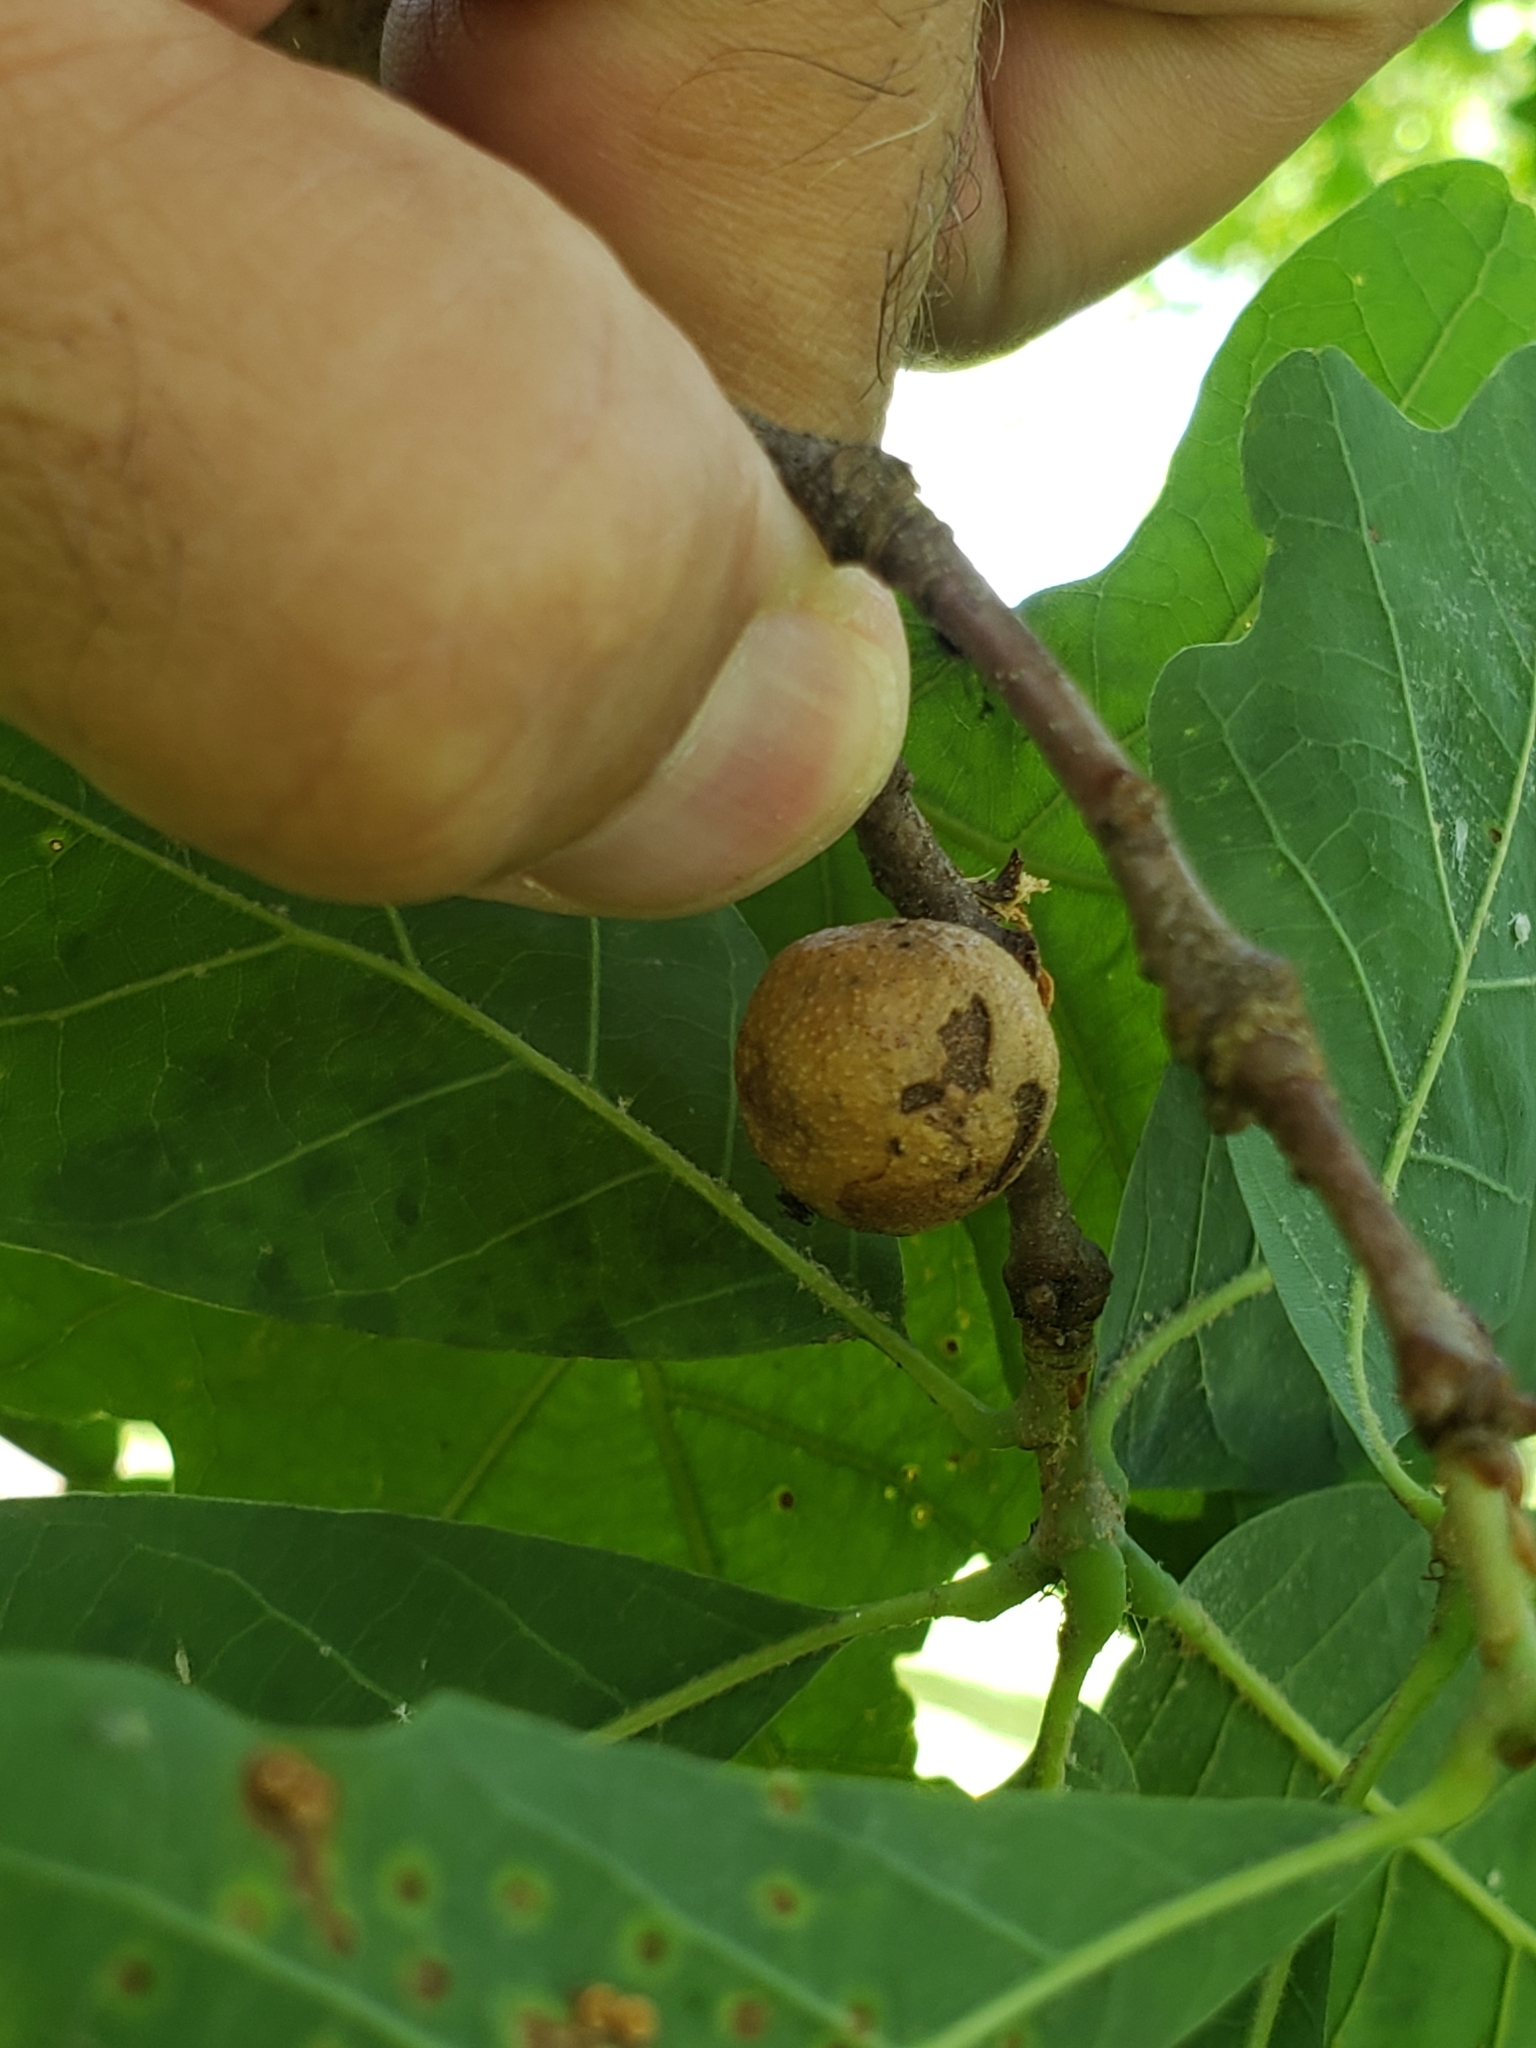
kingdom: Animalia
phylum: Arthropoda
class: Insecta
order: Hymenoptera
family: Cynipidae
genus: Disholcaspis
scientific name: Disholcaspis quercusglobulus
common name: Round bullet gall wasp
